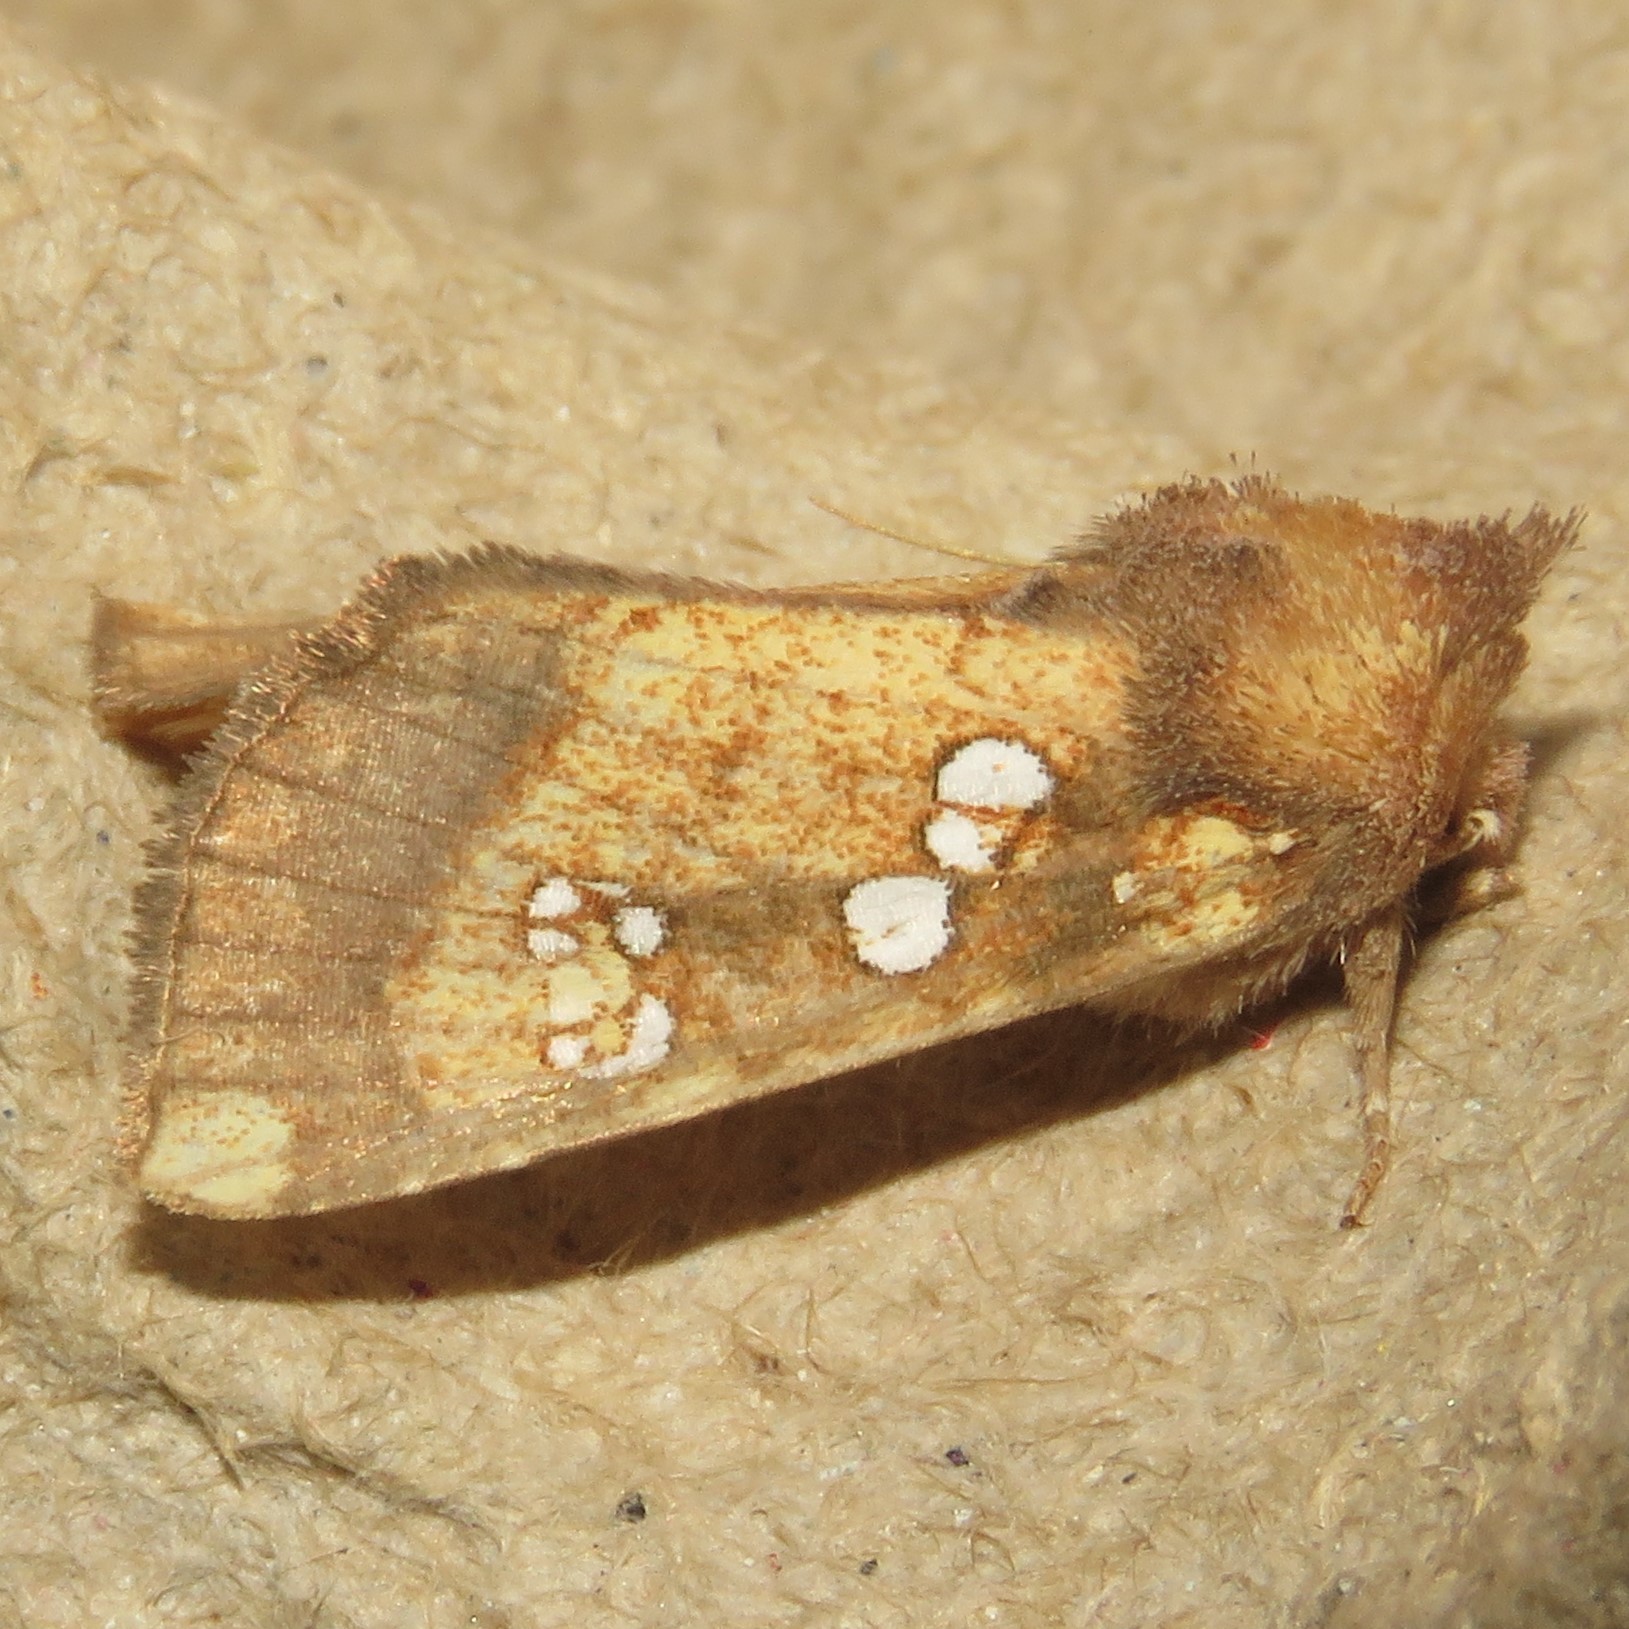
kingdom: Animalia
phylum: Arthropoda
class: Insecta
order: Lepidoptera
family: Noctuidae
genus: Papaipema
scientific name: Papaipema arctivorens
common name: Northern burdock borer moth
